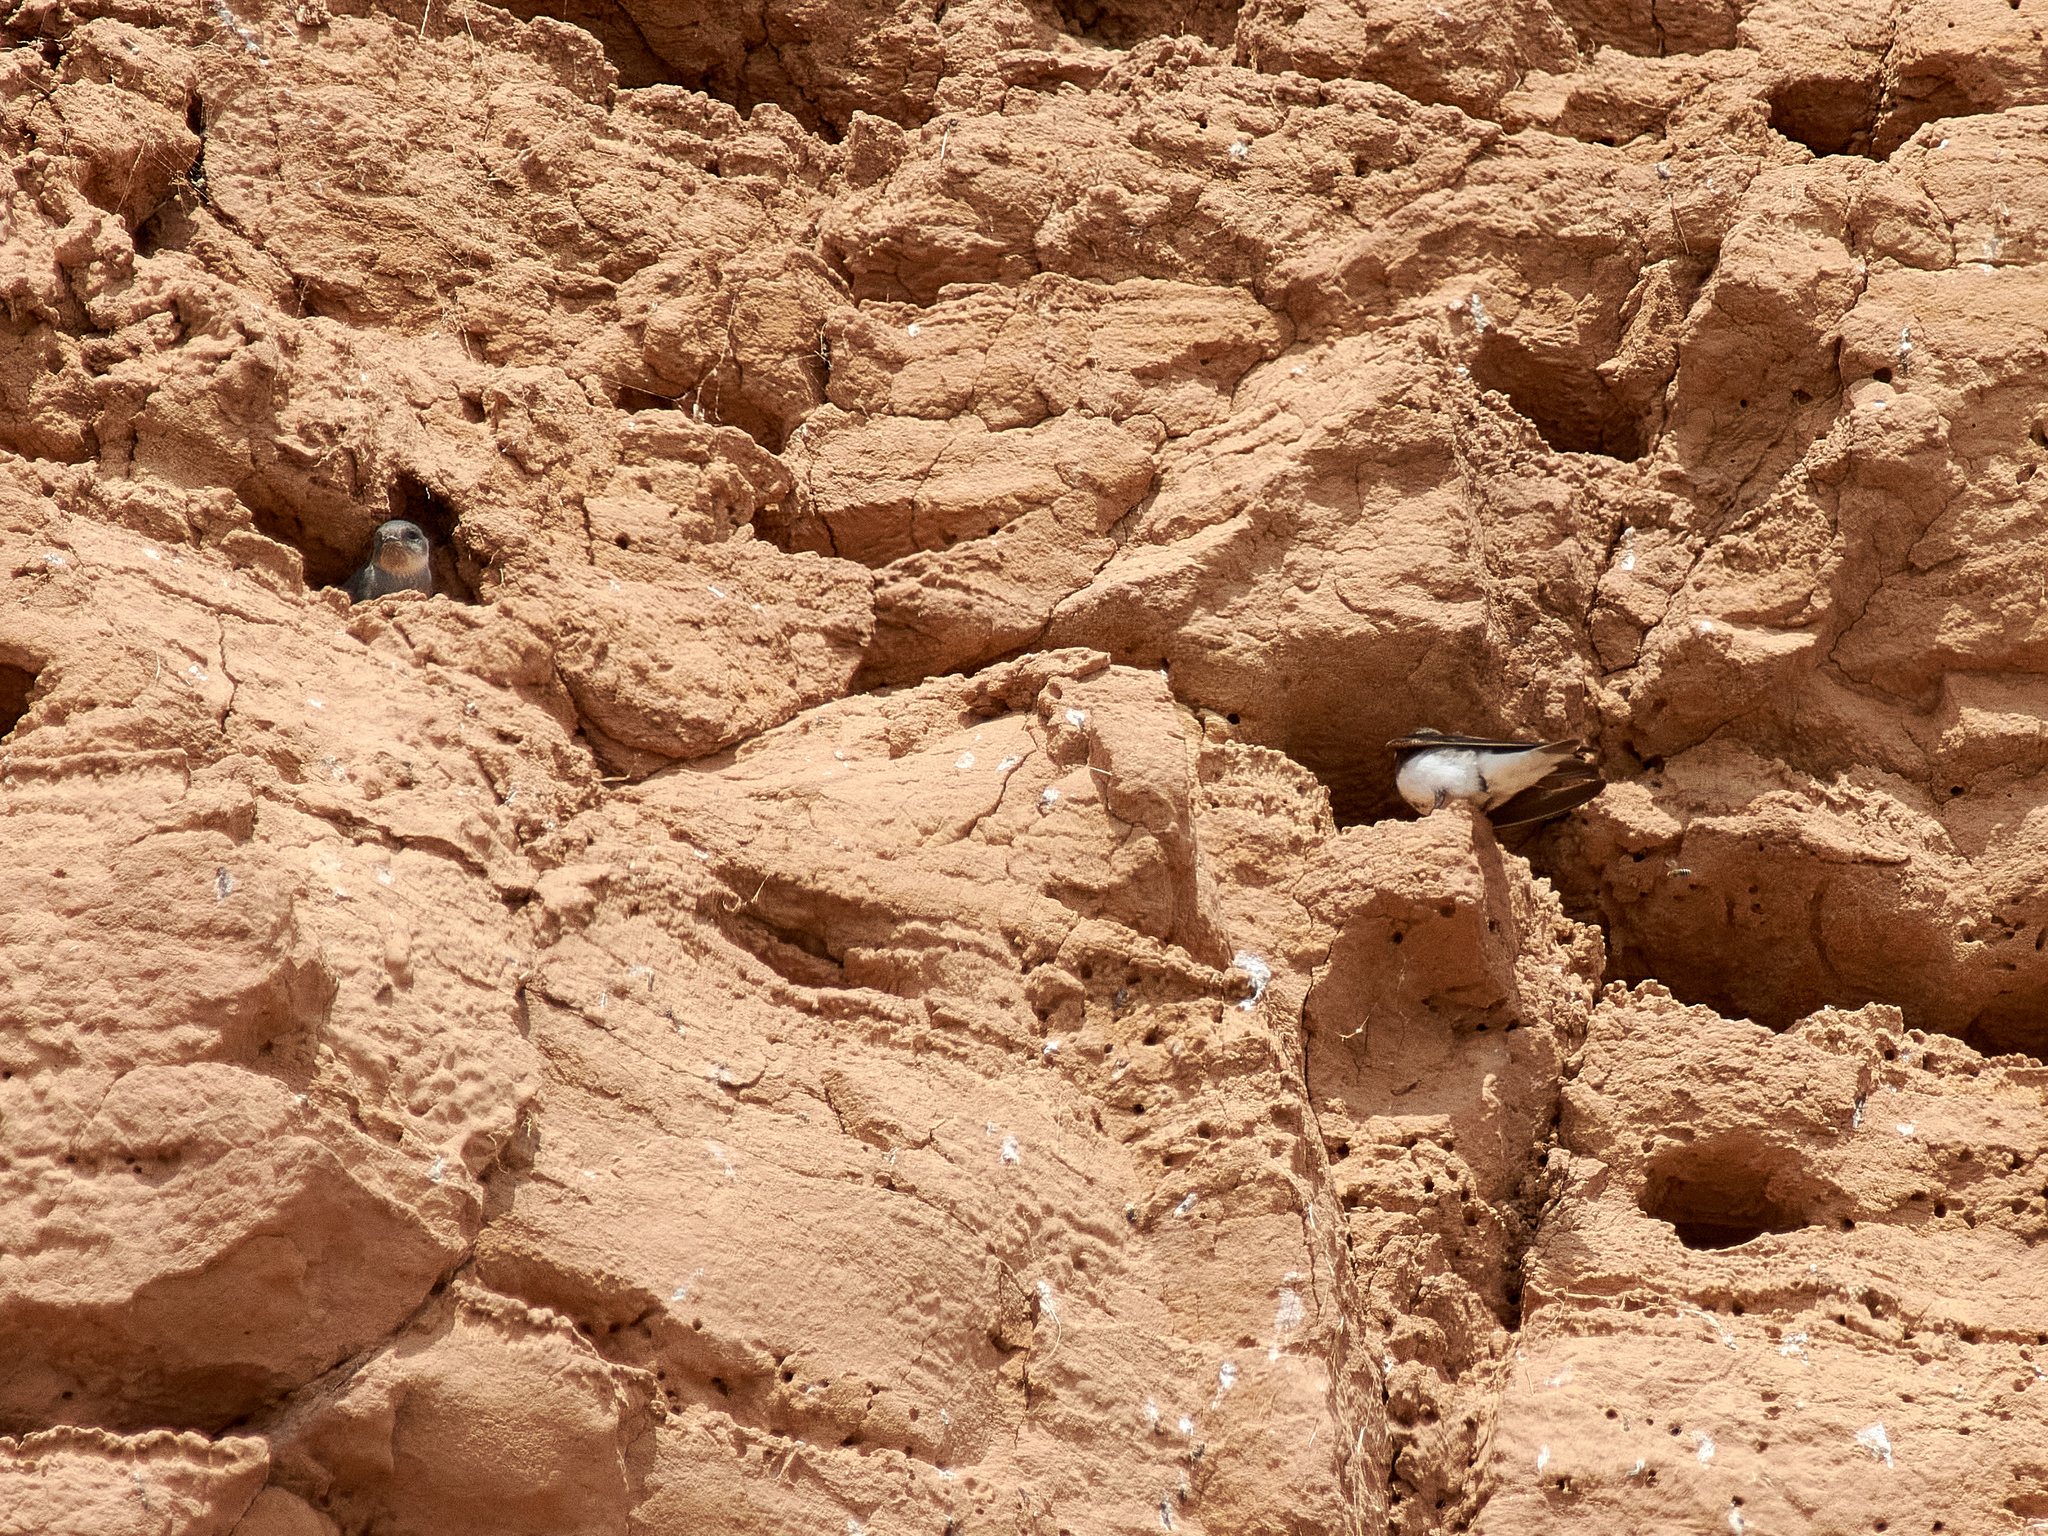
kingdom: Animalia
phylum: Chordata
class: Aves
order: Passeriformes
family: Hirundinidae
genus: Riparia
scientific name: Riparia riparia
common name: Sand martin
